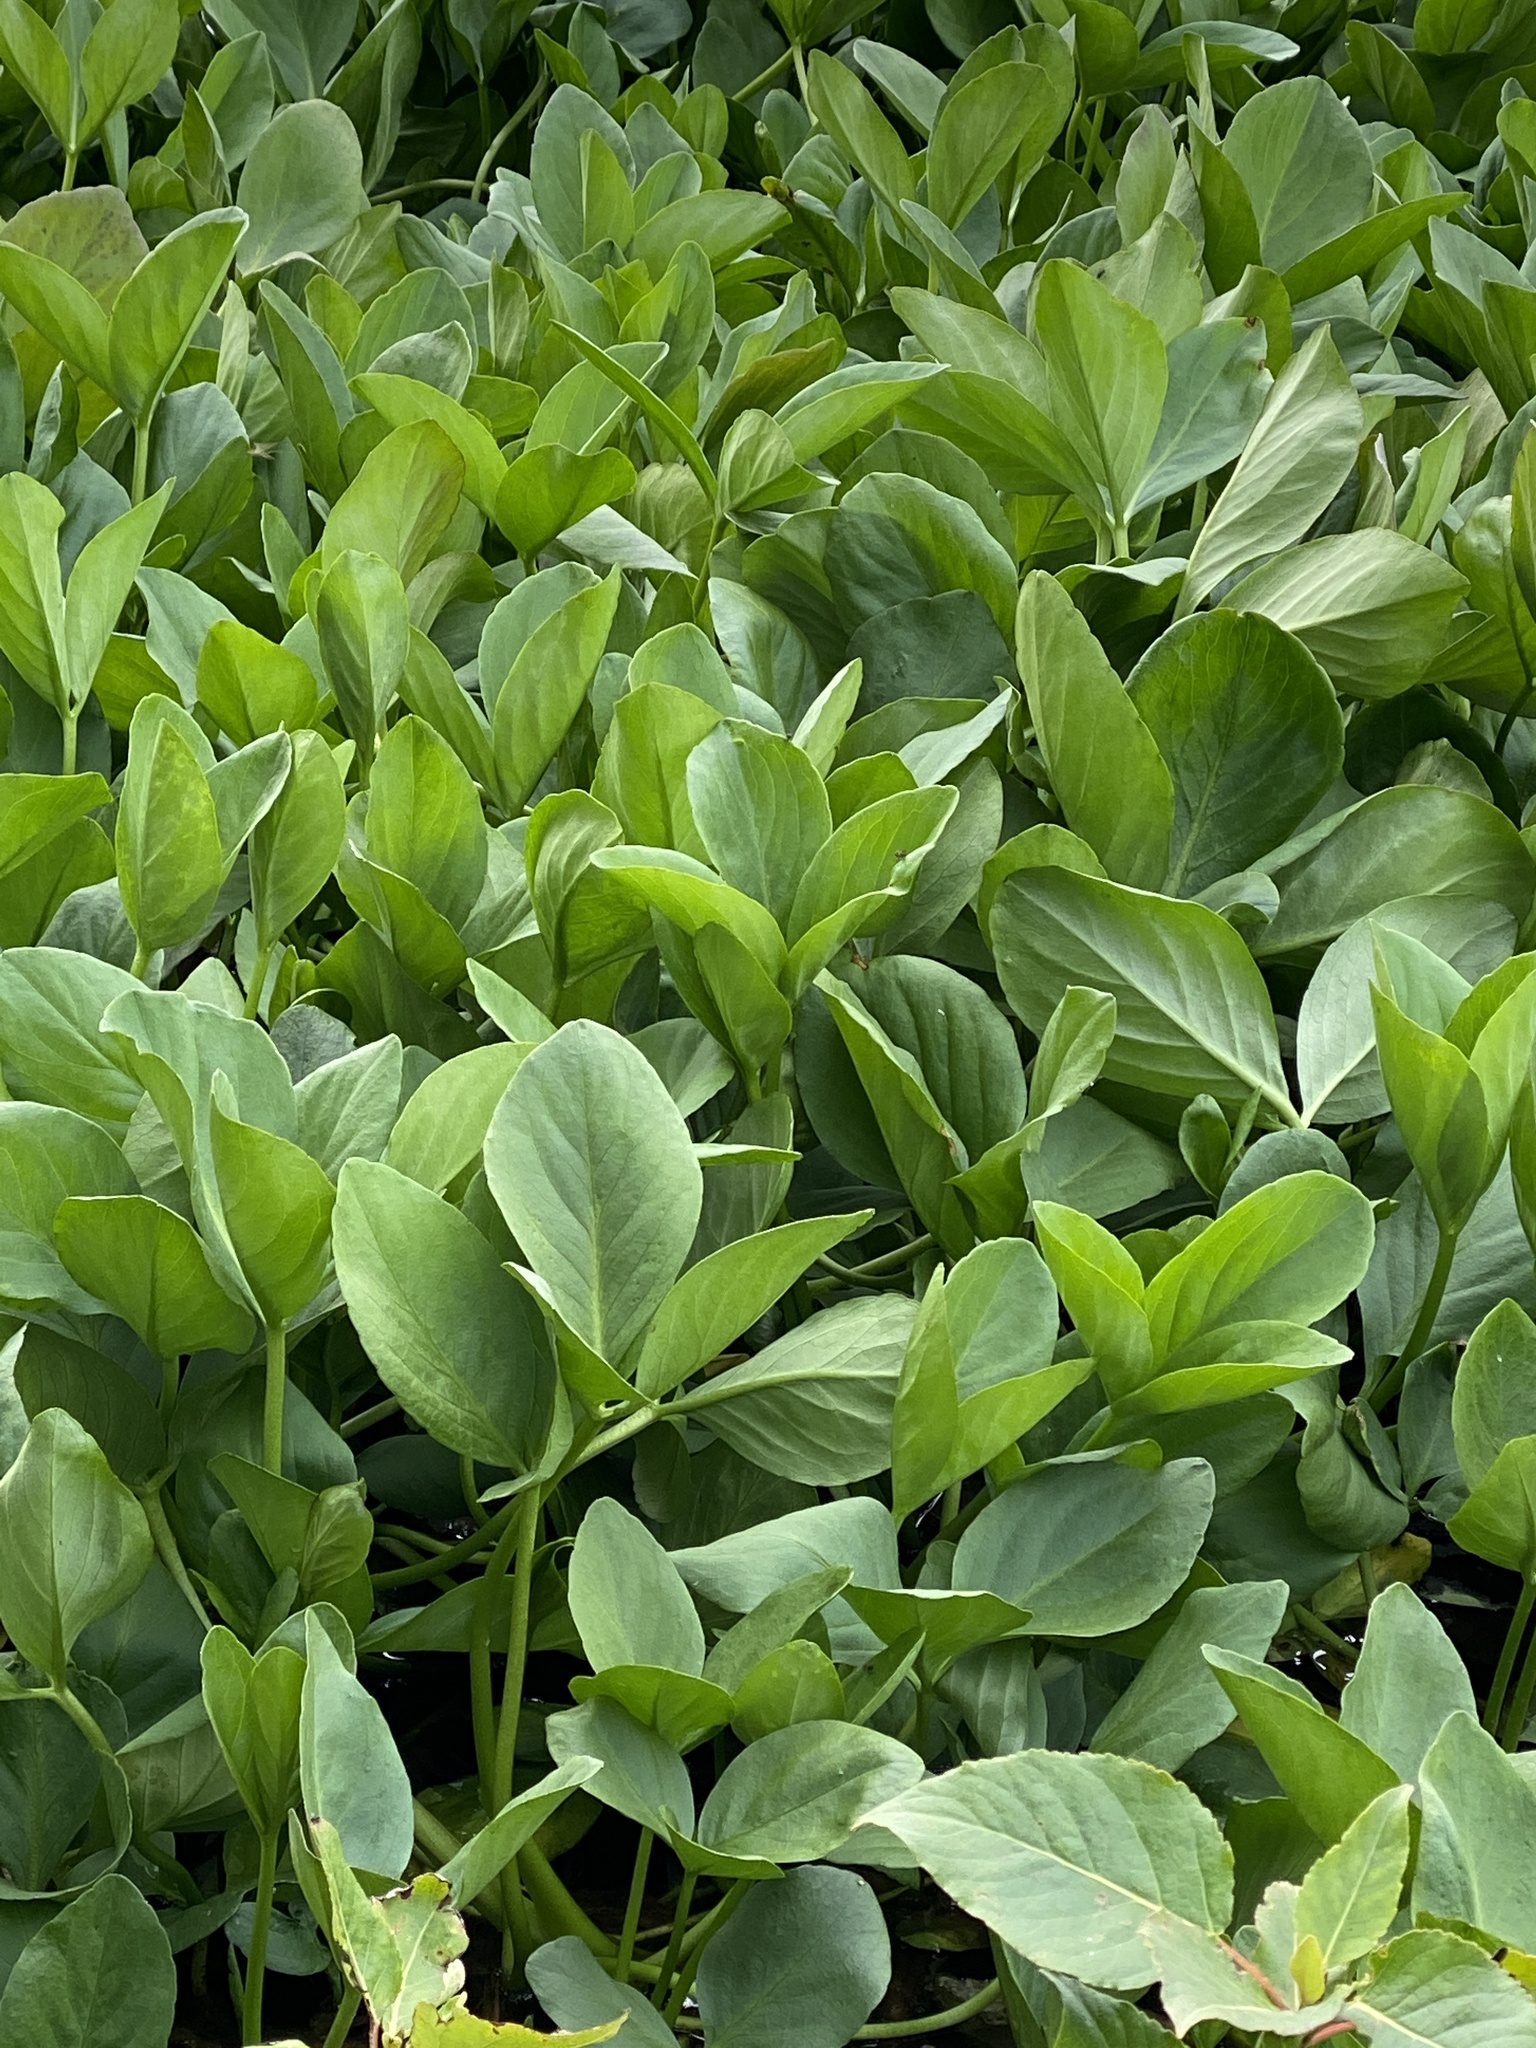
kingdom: Plantae
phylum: Tracheophyta
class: Magnoliopsida
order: Asterales
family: Menyanthaceae
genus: Menyanthes
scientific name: Menyanthes trifoliata
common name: Bogbean
